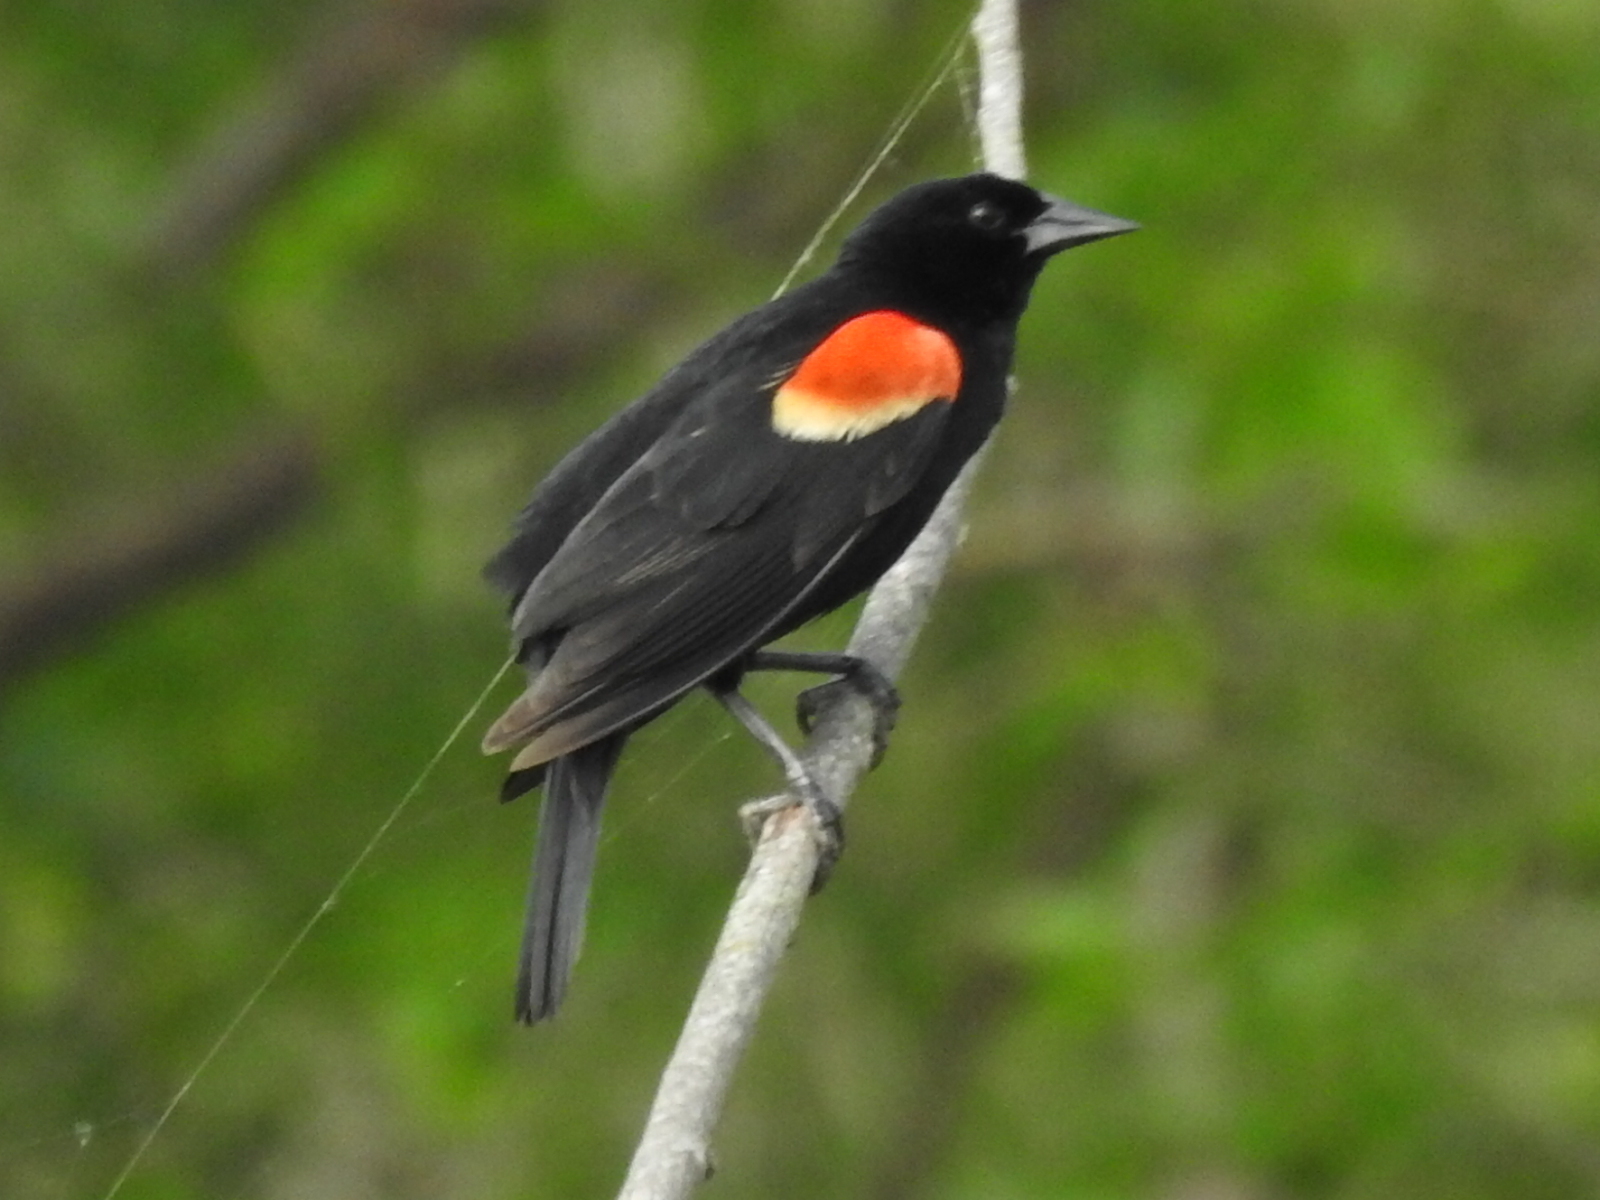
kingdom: Animalia
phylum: Chordata
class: Aves
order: Passeriformes
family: Icteridae
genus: Agelaius
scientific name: Agelaius phoeniceus
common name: Red-winged blackbird
